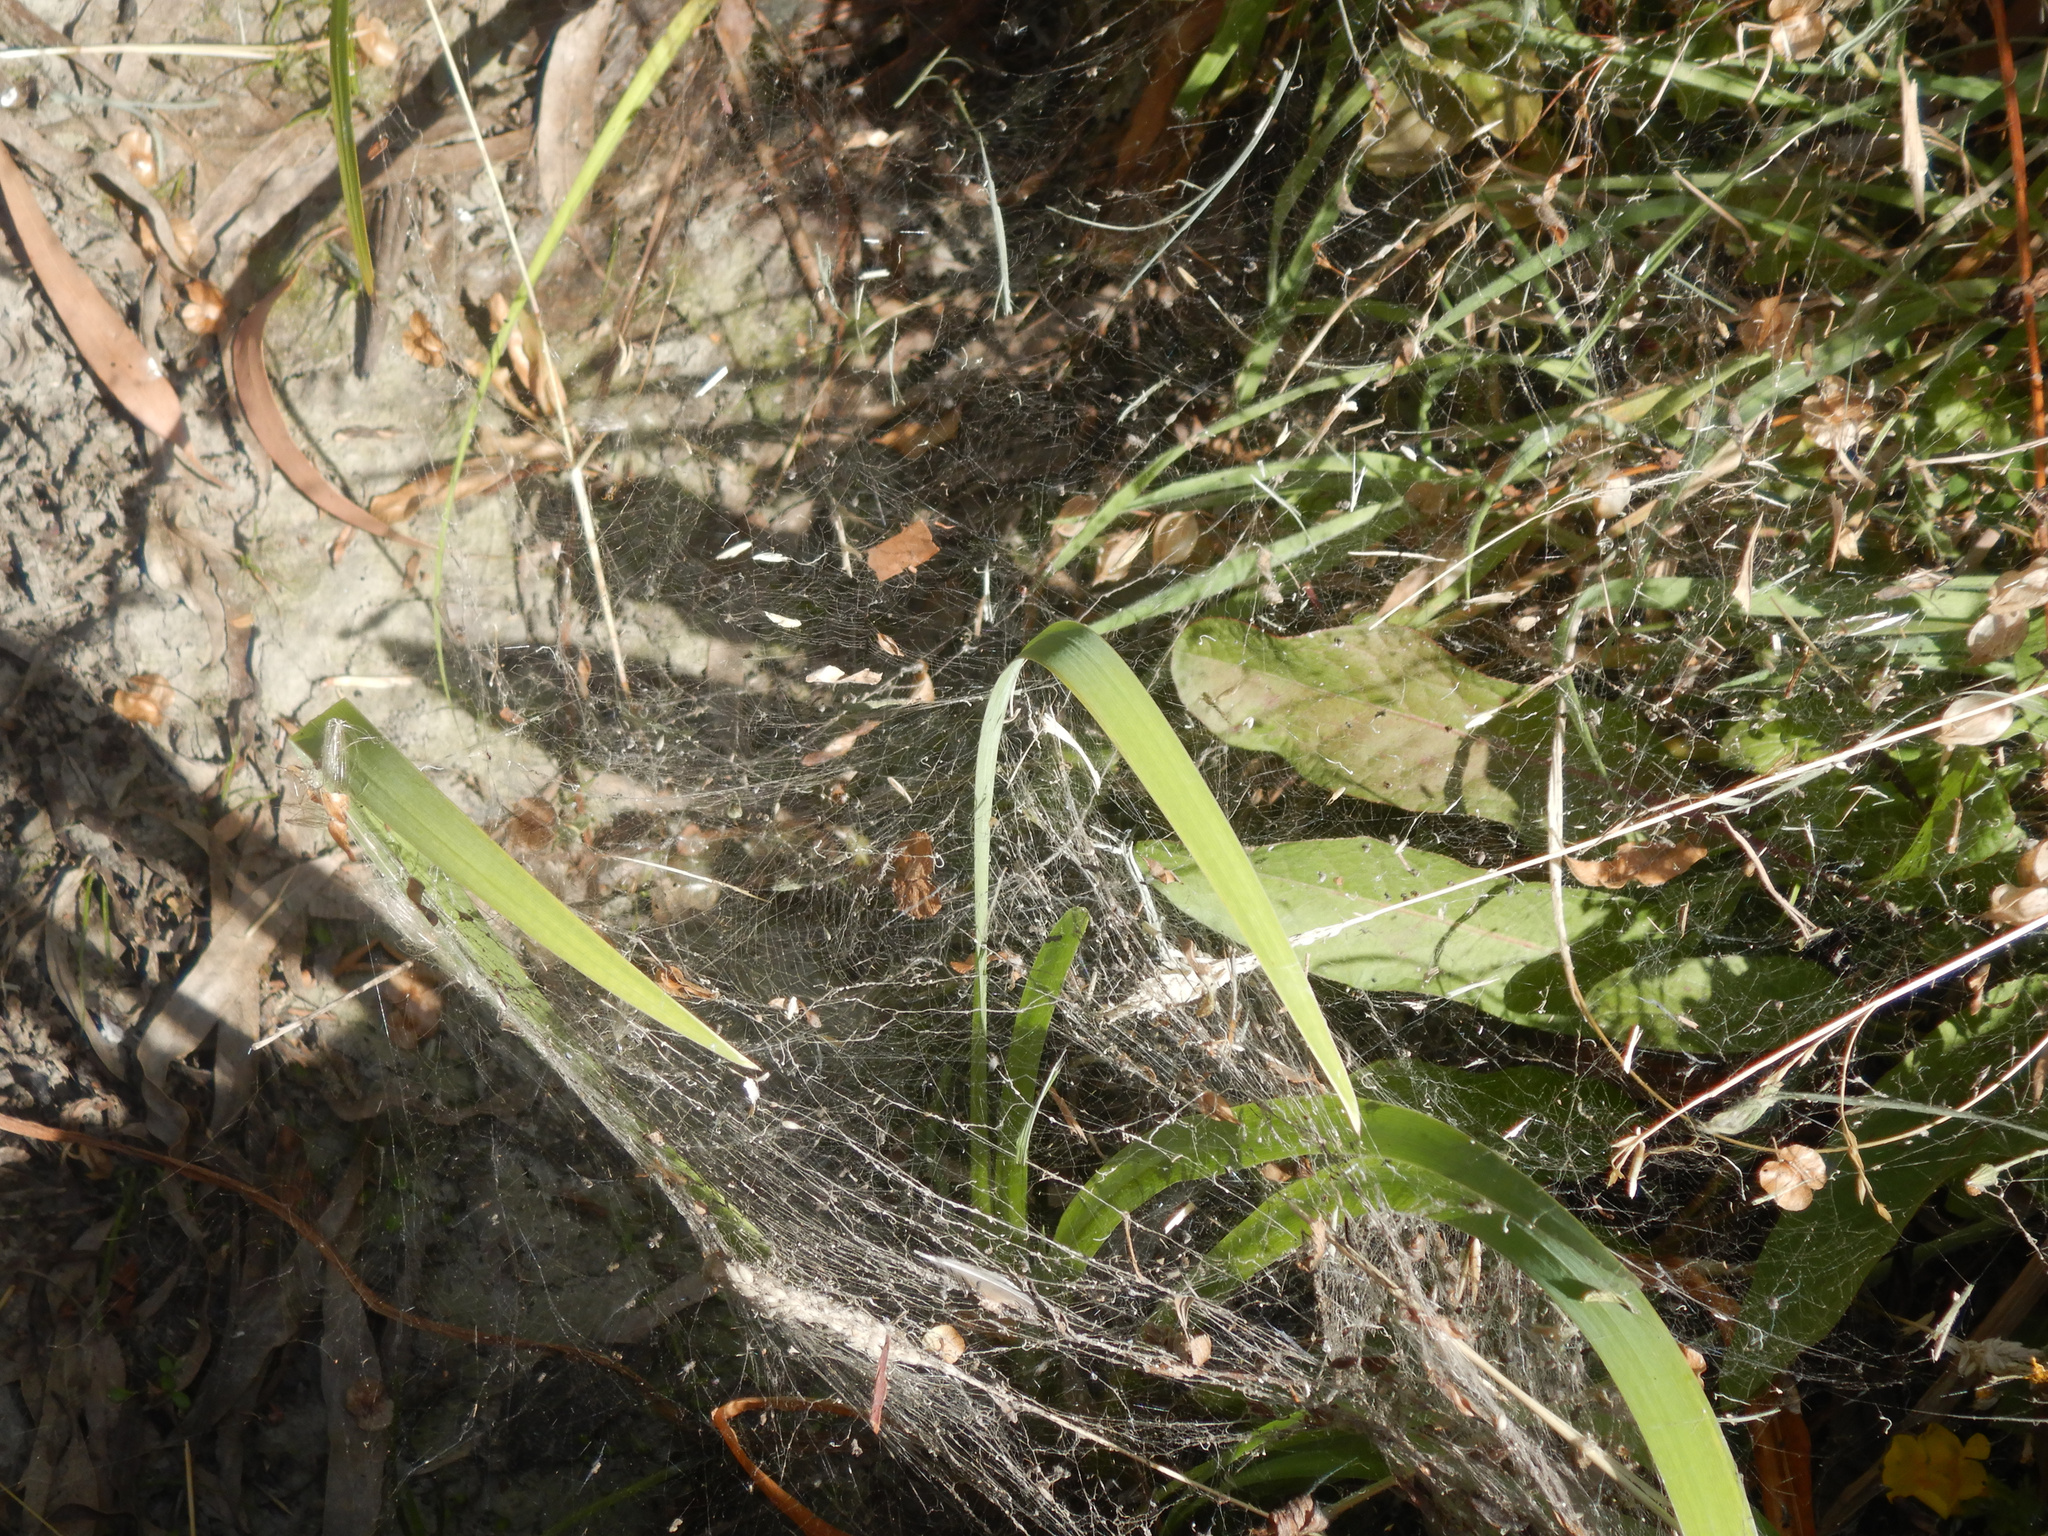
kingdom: Animalia
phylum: Arthropoda
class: Arachnida
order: Araneae
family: Uloboridae
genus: Philoponella
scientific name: Philoponella congregabilis
